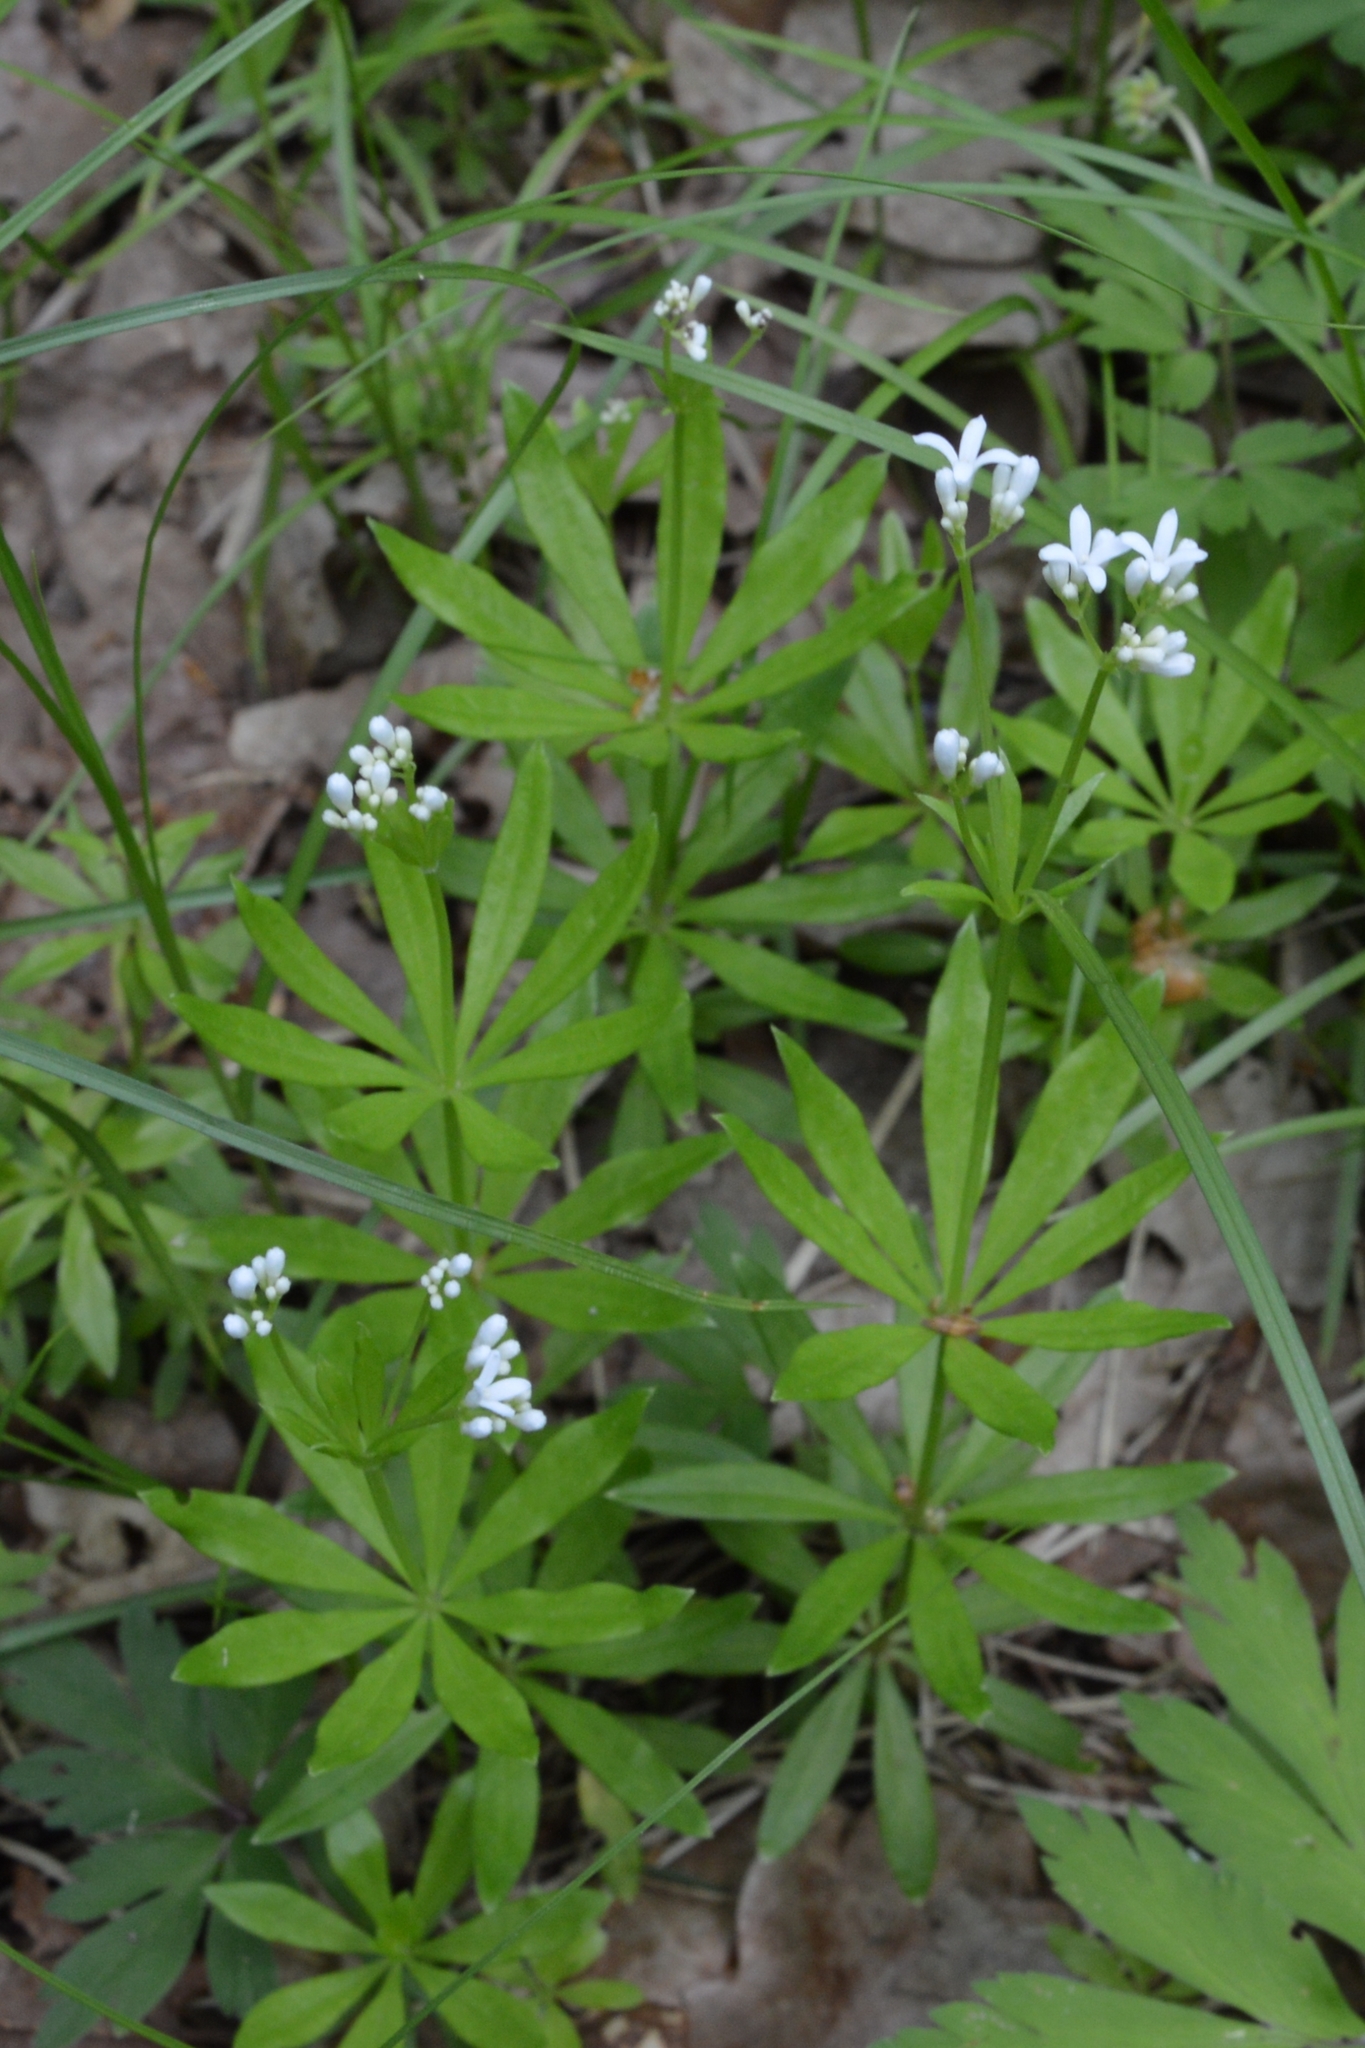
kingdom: Plantae
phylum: Tracheophyta
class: Magnoliopsida
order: Gentianales
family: Rubiaceae
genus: Galium
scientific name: Galium odoratum
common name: Sweet woodruff
